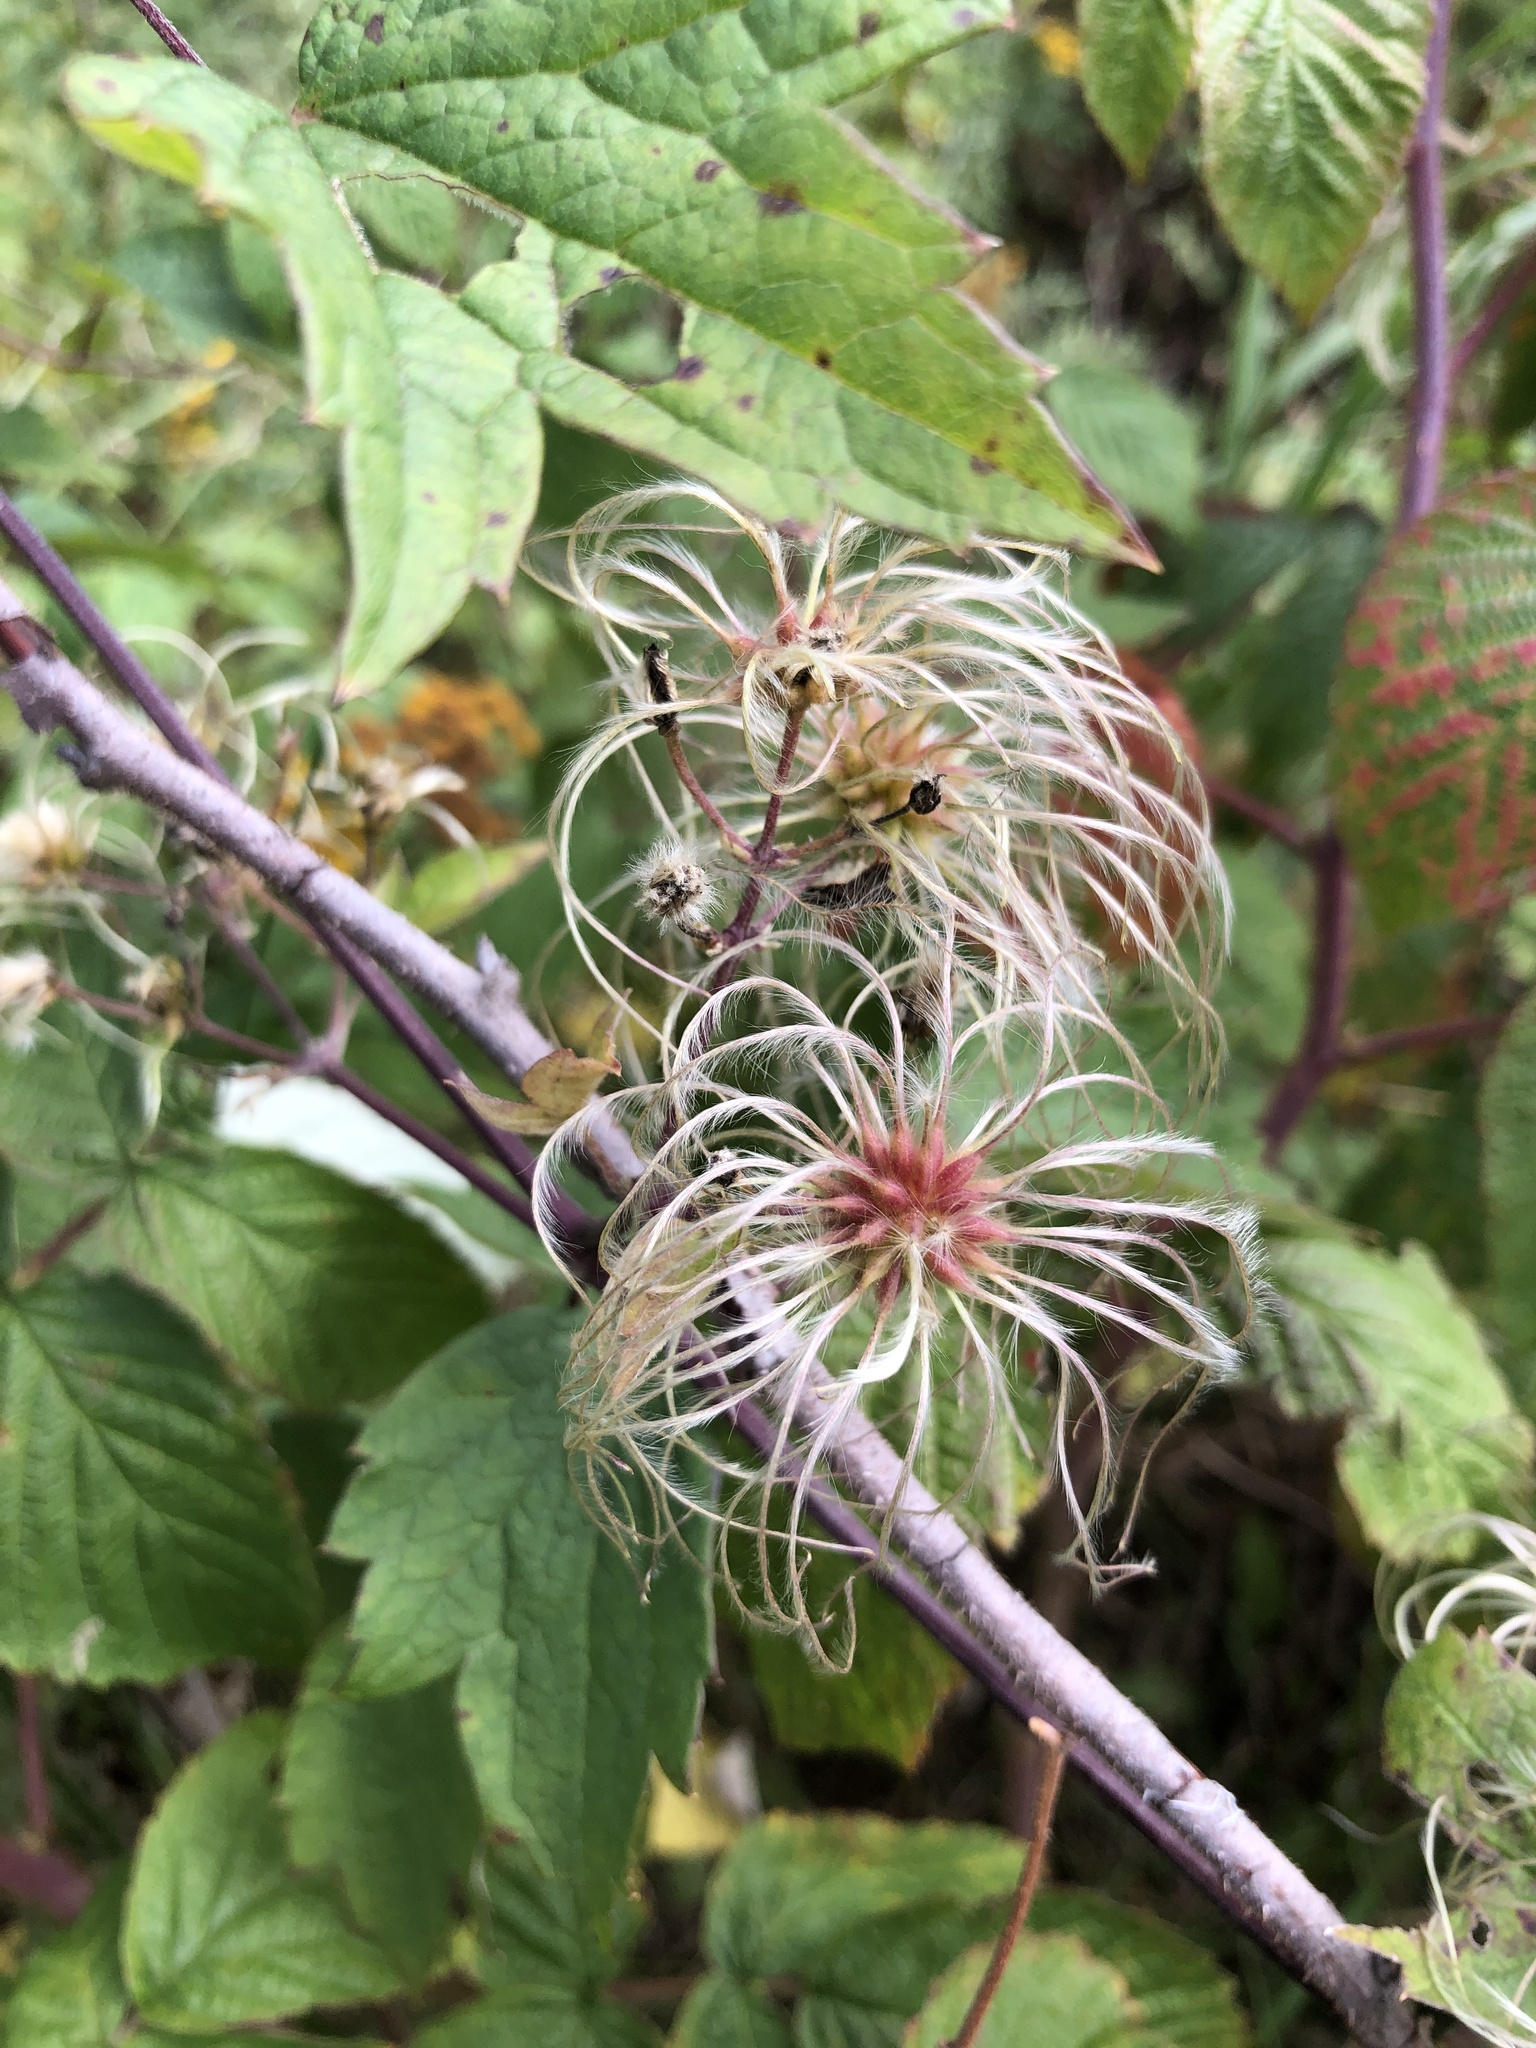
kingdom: Plantae
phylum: Tracheophyta
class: Magnoliopsida
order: Ranunculales
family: Ranunculaceae
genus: Clematis
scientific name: Clematis virginiana
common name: Virgin's-bower
